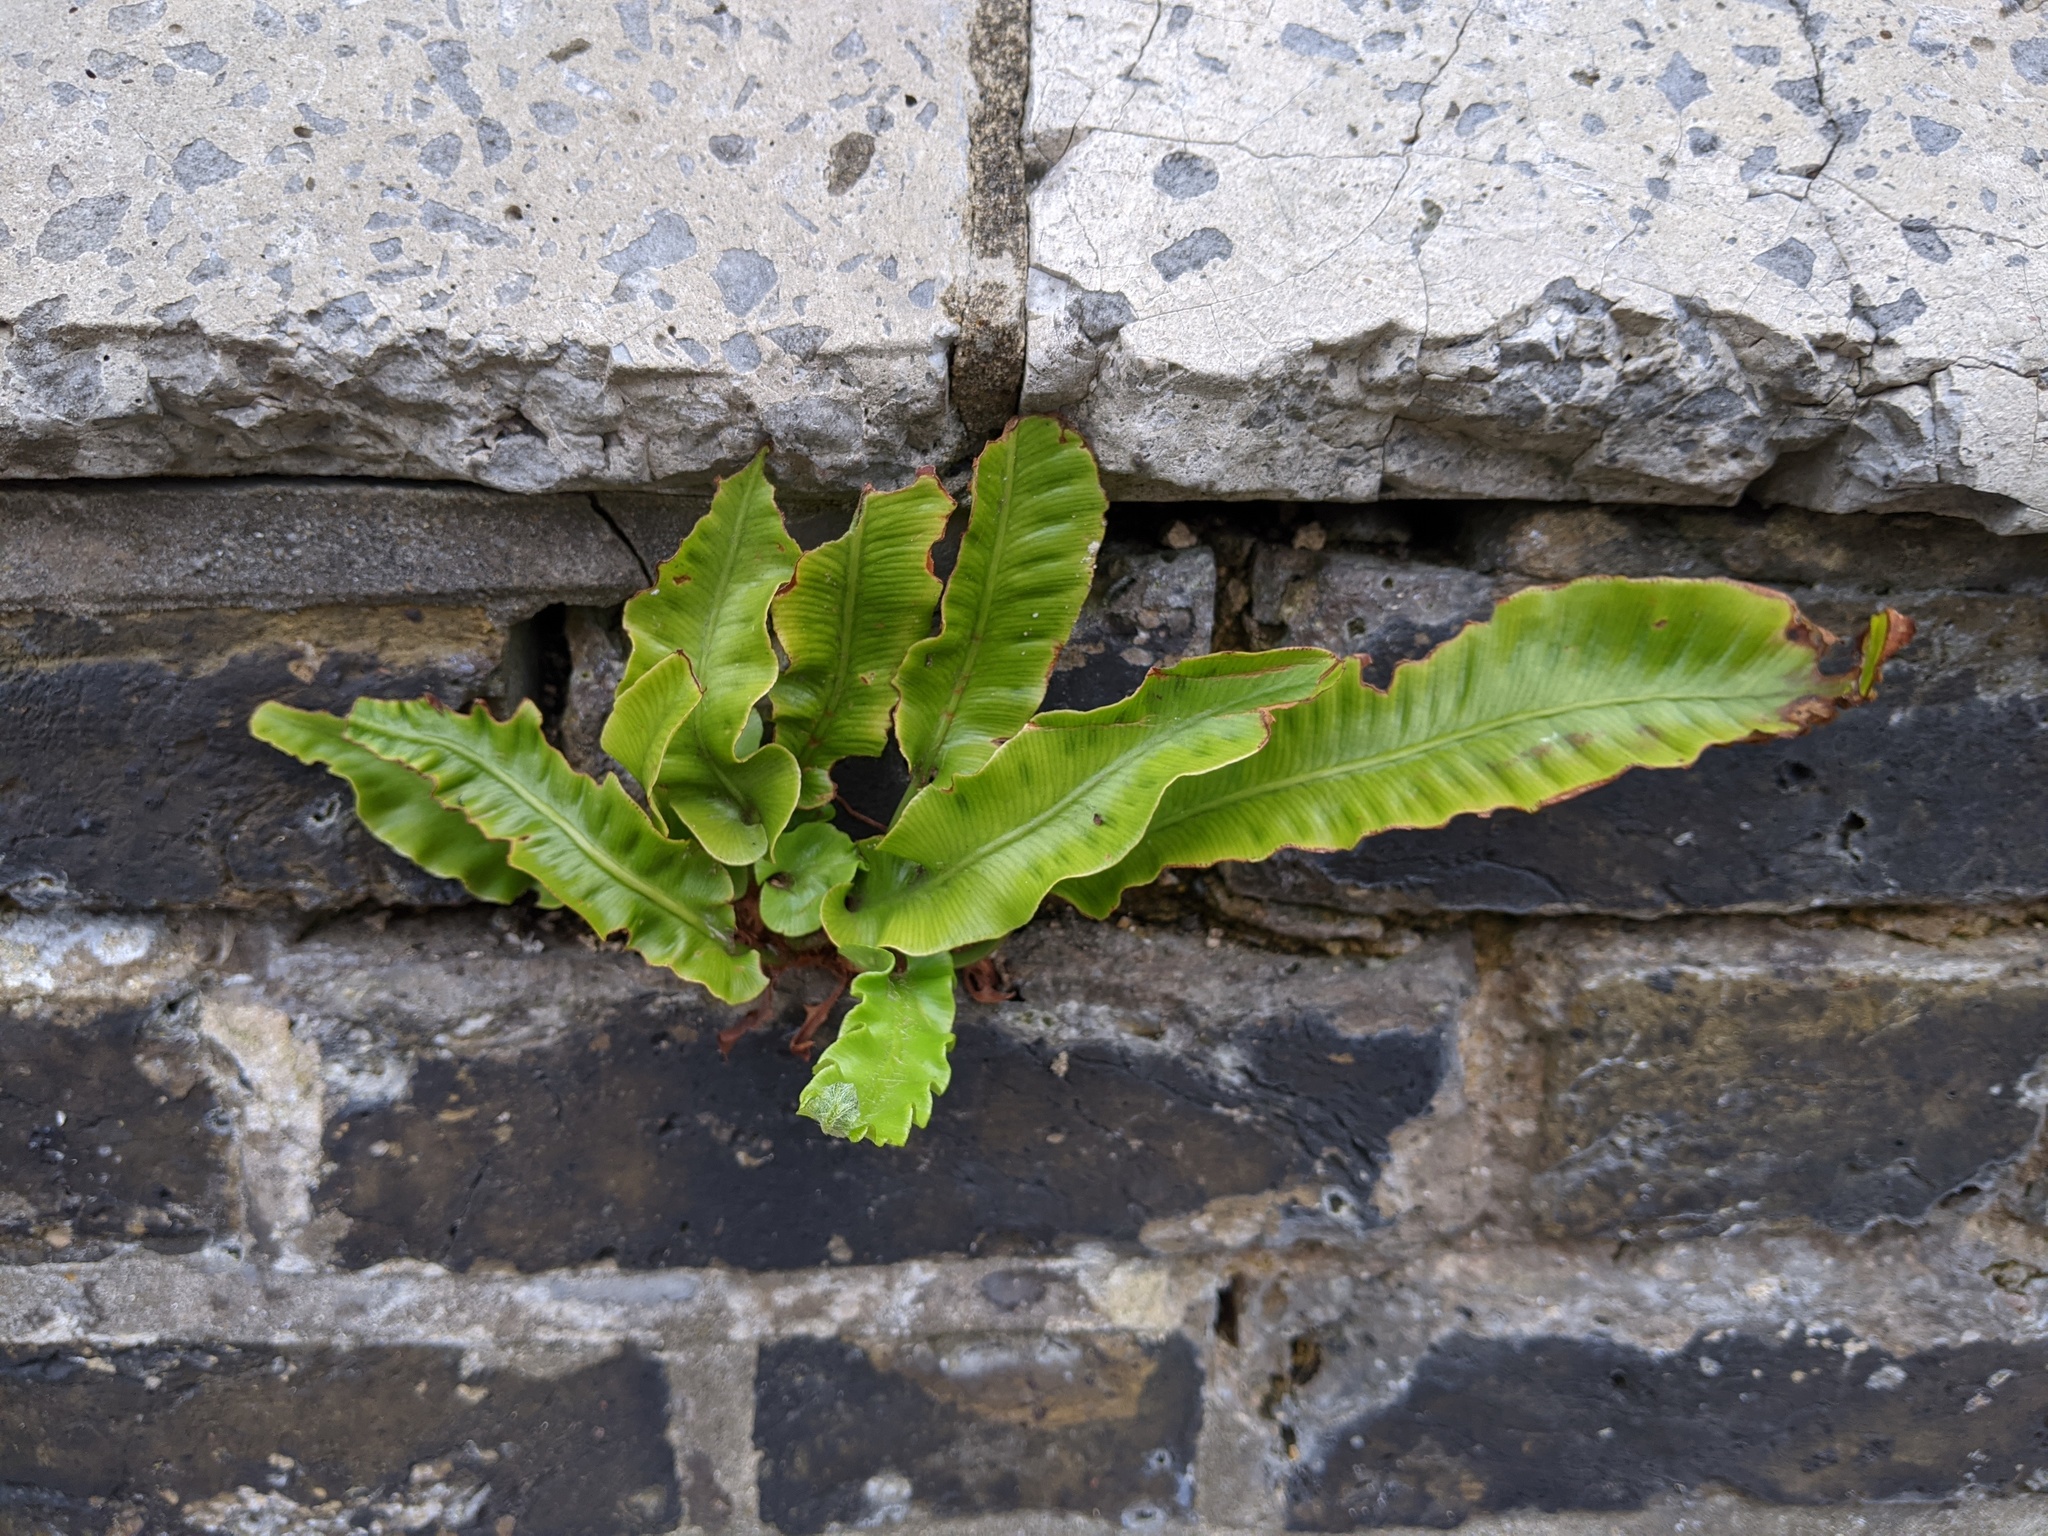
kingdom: Plantae
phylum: Tracheophyta
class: Polypodiopsida
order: Polypodiales
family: Aspleniaceae
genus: Asplenium
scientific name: Asplenium scolopendrium
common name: Hart's-tongue fern
